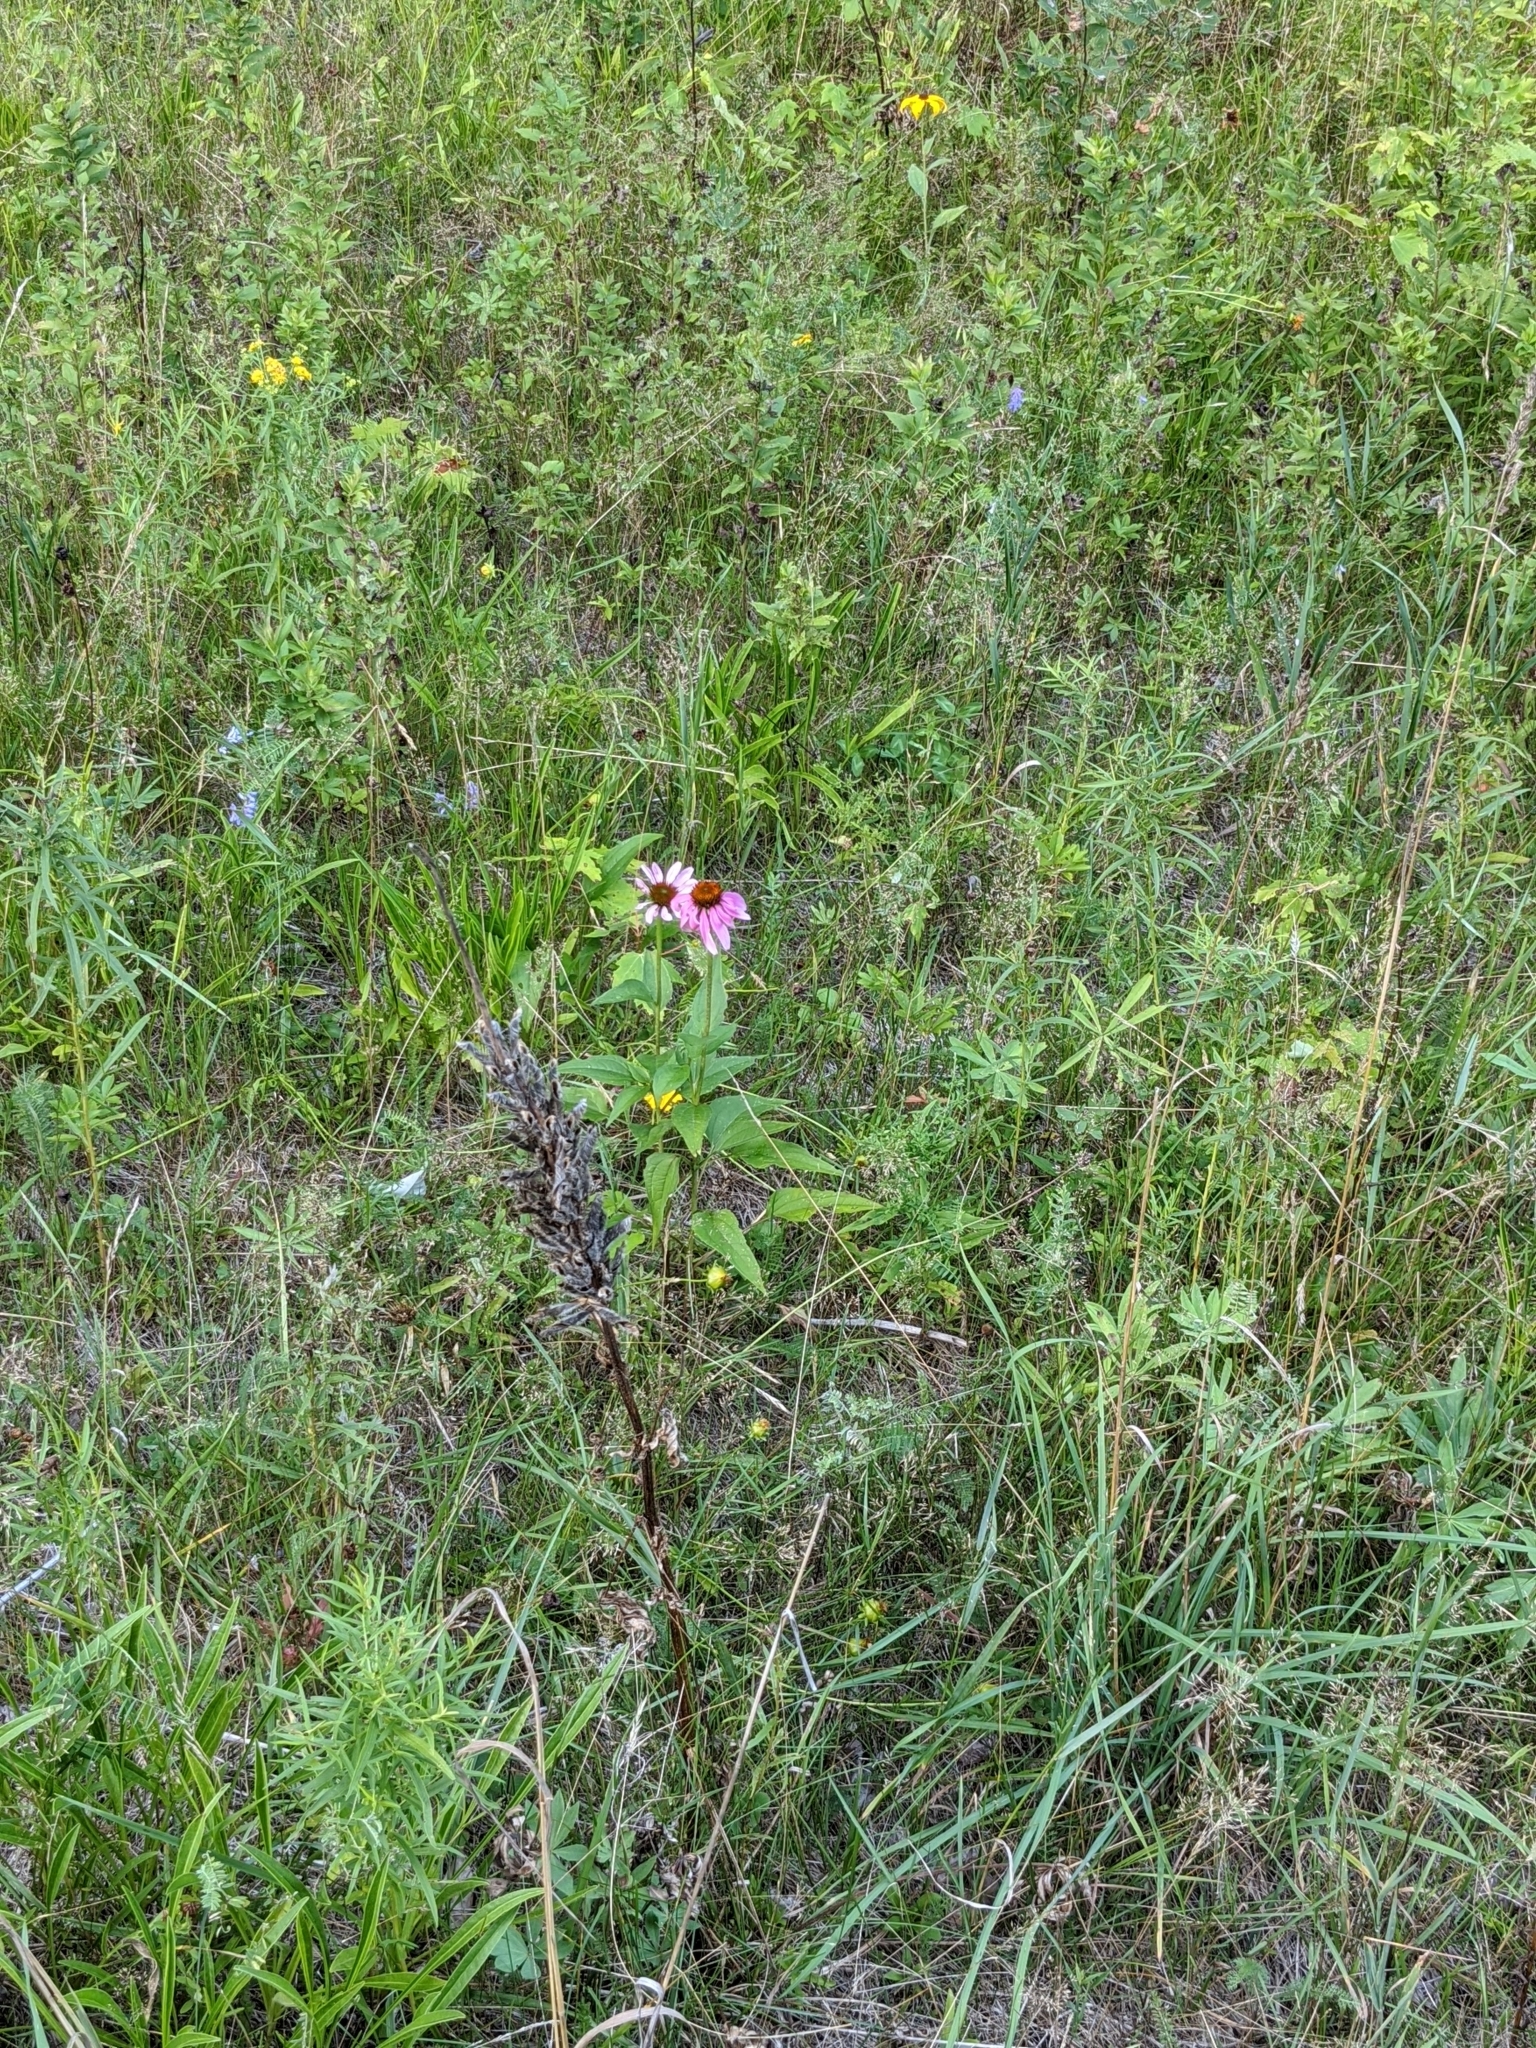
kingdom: Plantae
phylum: Tracheophyta
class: Magnoliopsida
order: Asterales
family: Asteraceae
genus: Echinacea
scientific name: Echinacea purpurea
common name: Broad-leaved purple coneflower
